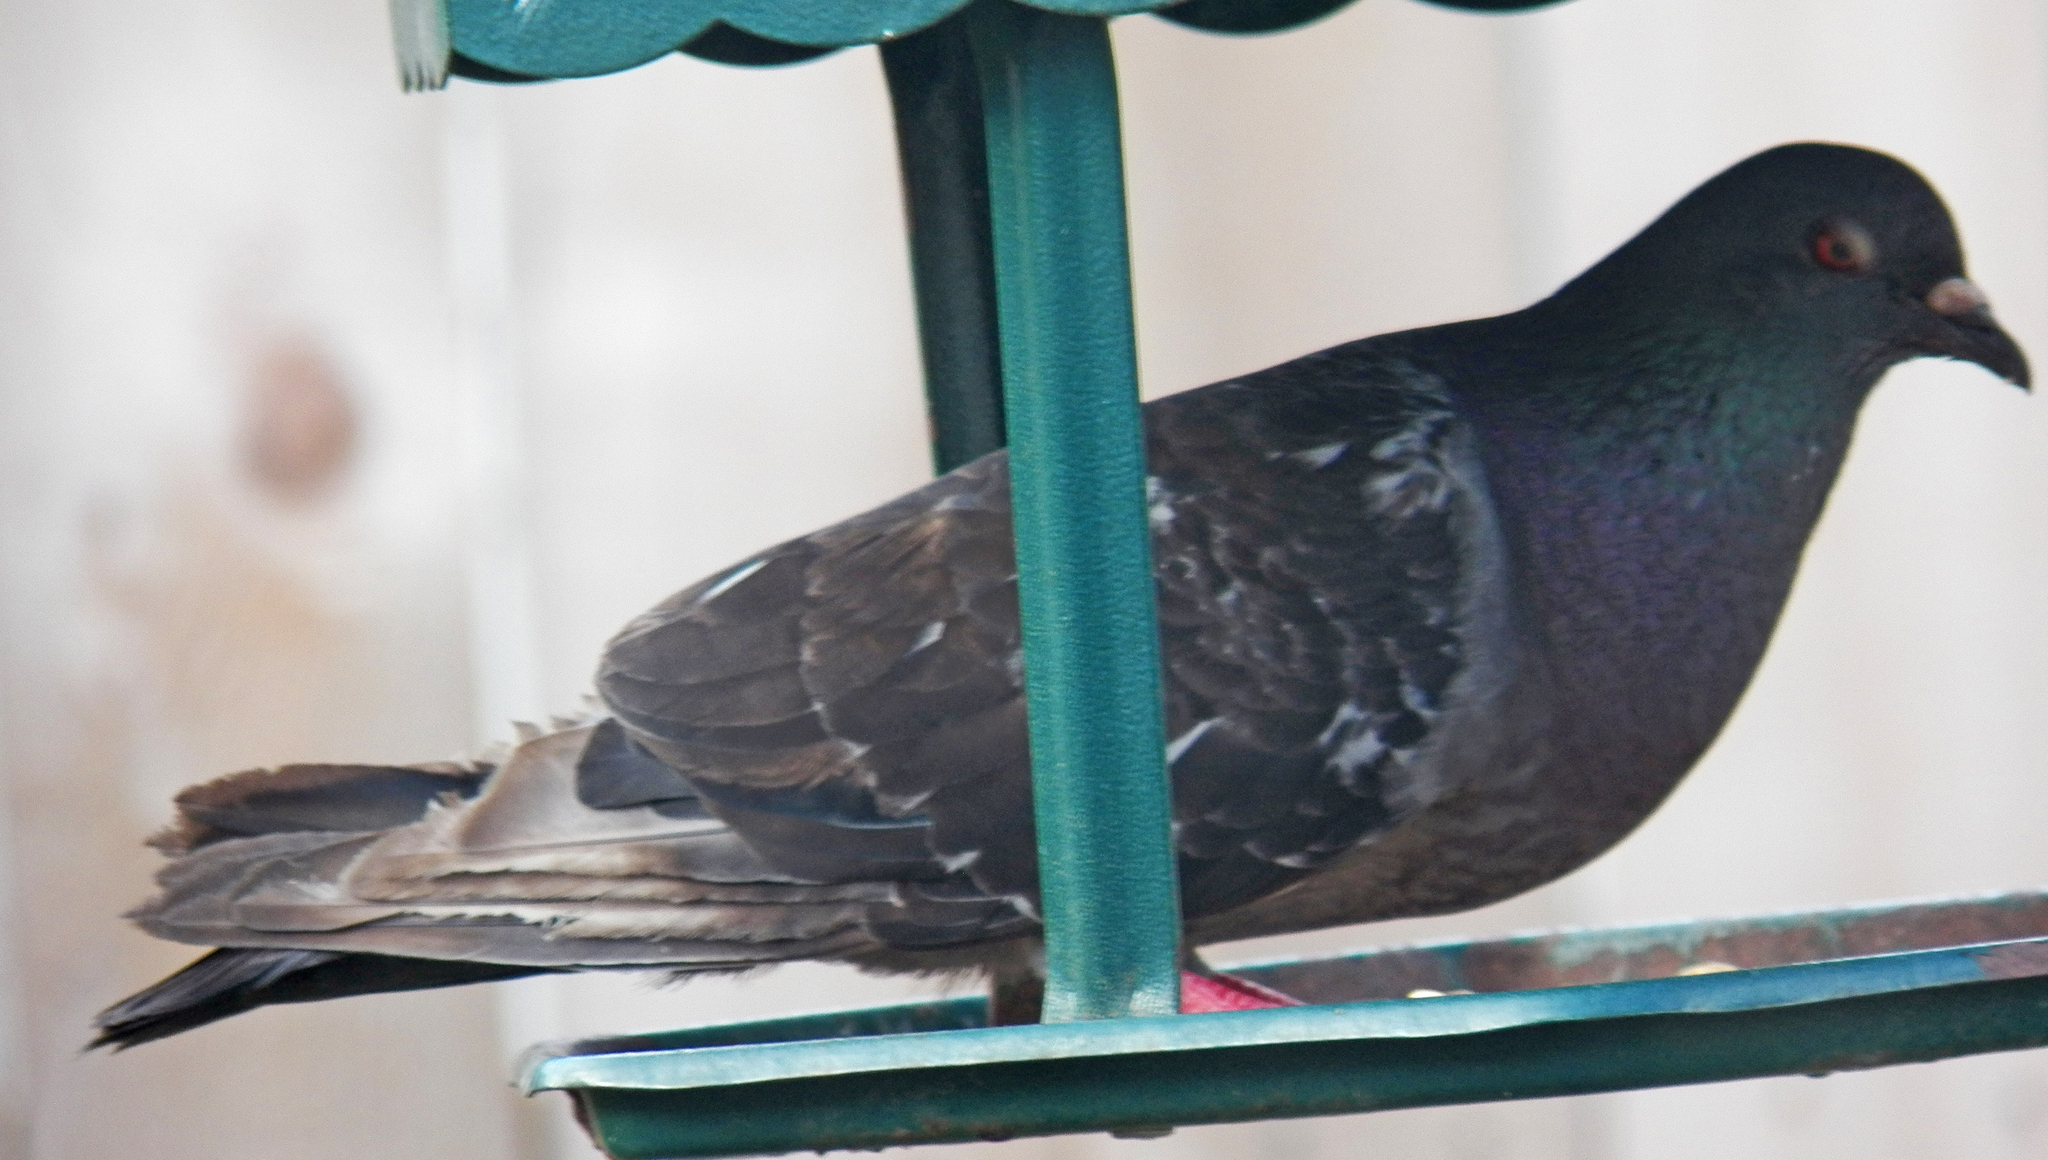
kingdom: Animalia
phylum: Chordata
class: Aves
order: Columbiformes
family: Columbidae
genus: Columba
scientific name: Columba livia
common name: Rock pigeon
